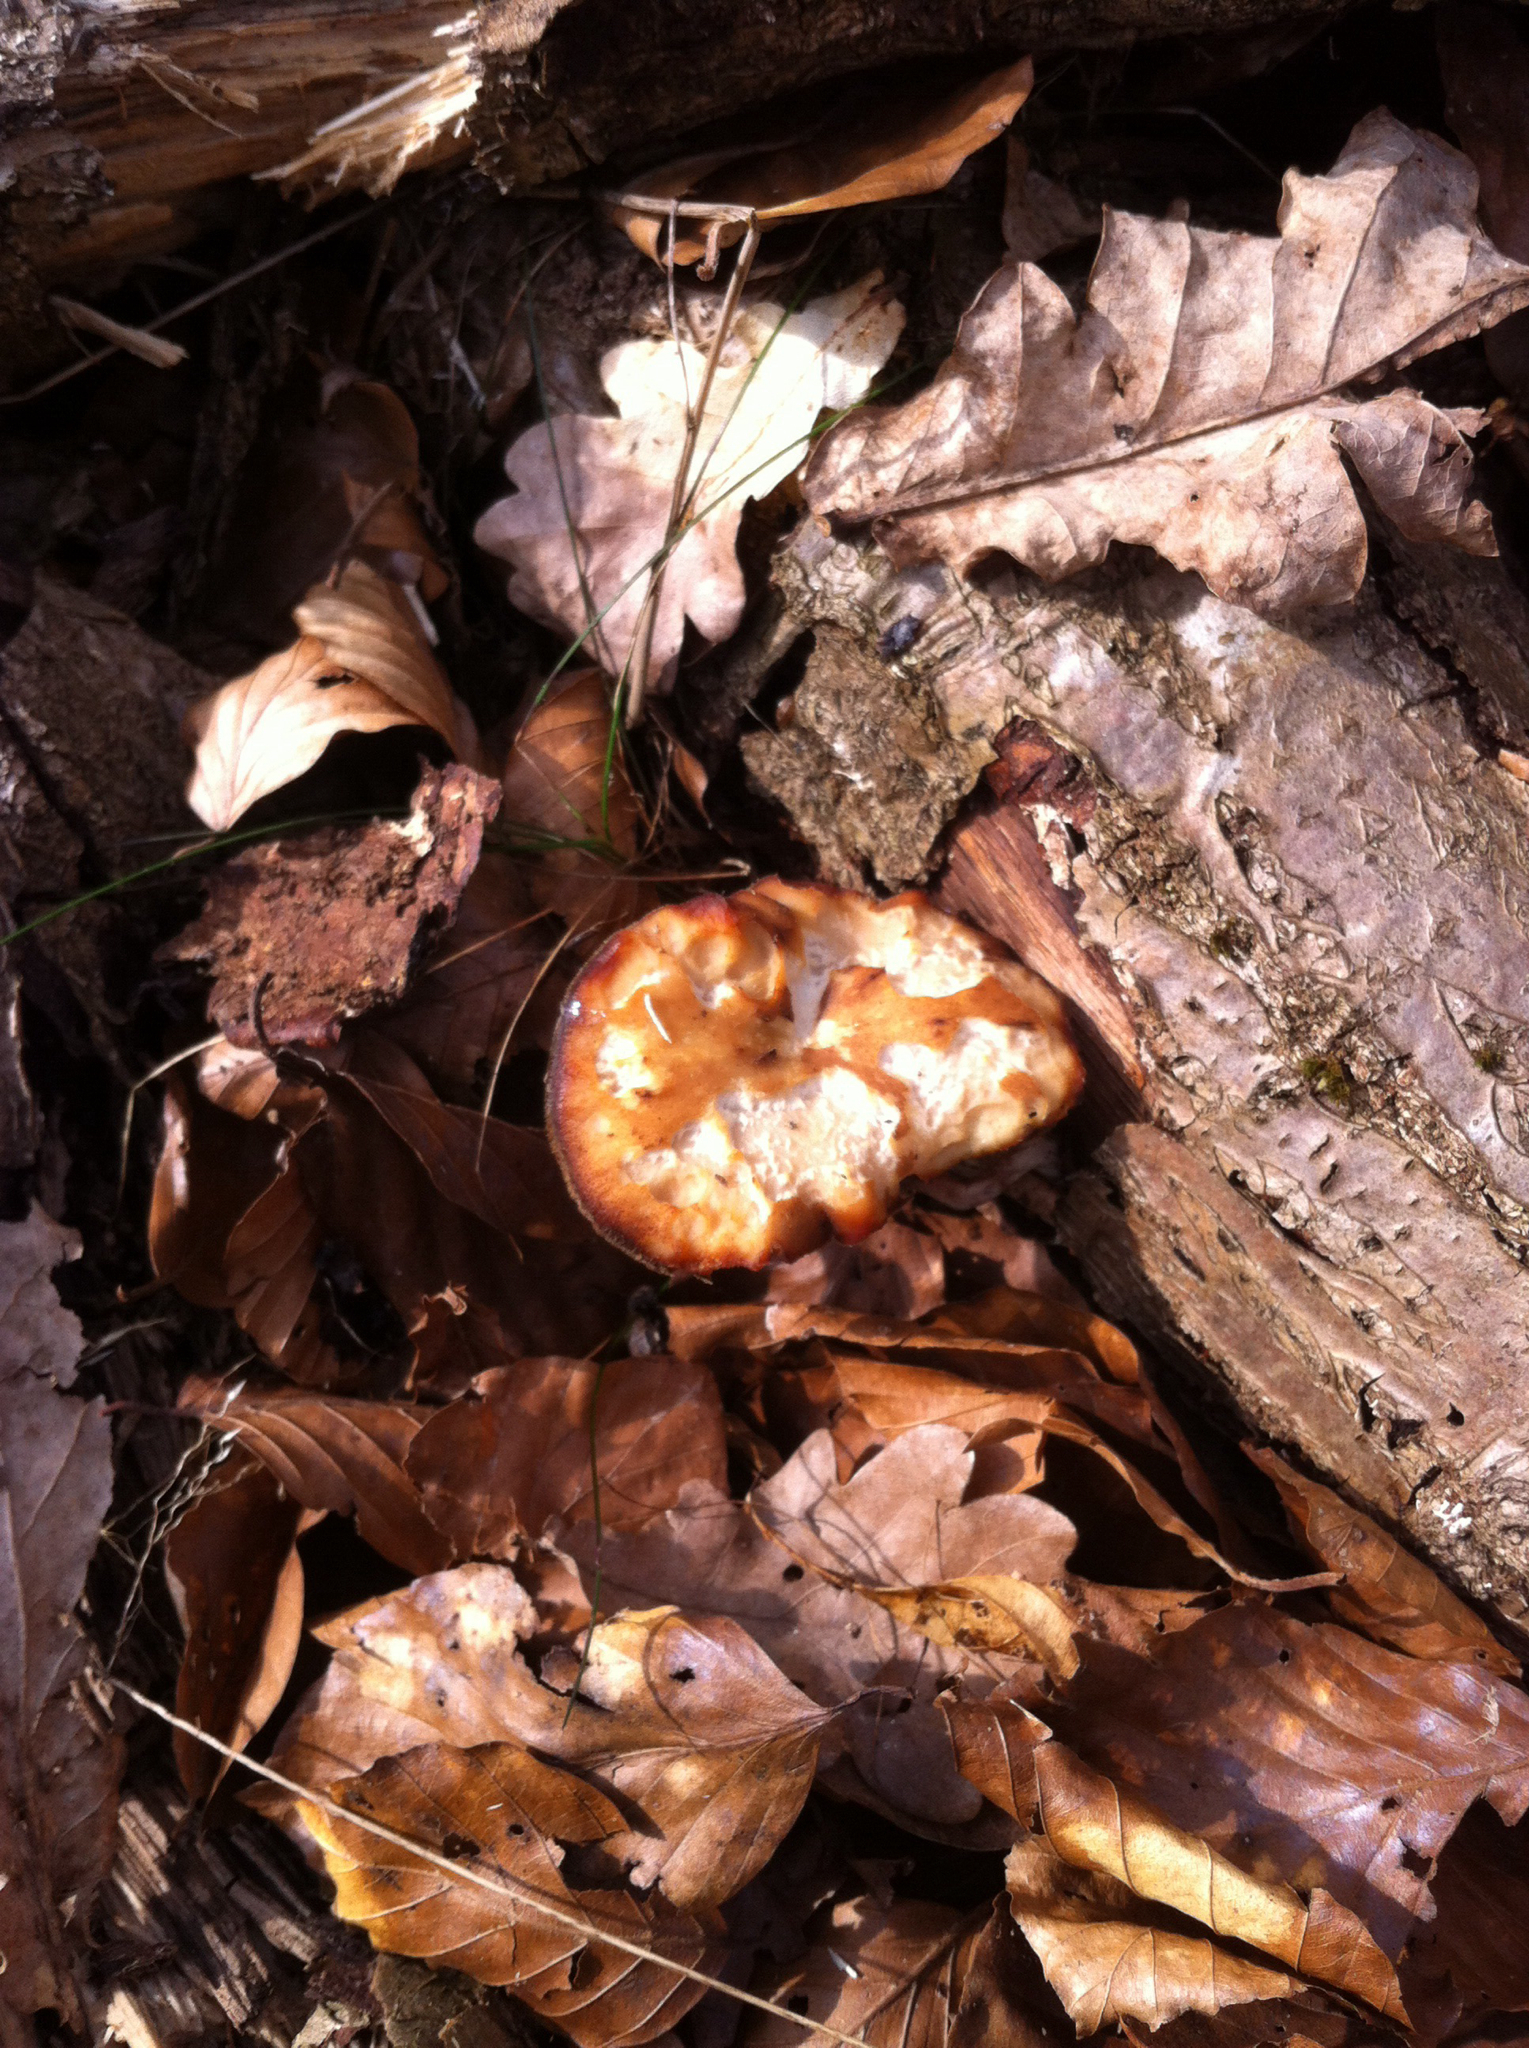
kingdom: Fungi
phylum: Basidiomycota
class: Agaricomycetes
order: Polyporales
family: Polyporaceae
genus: Lentinus
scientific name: Lentinus brumalis
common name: Winter polypore
